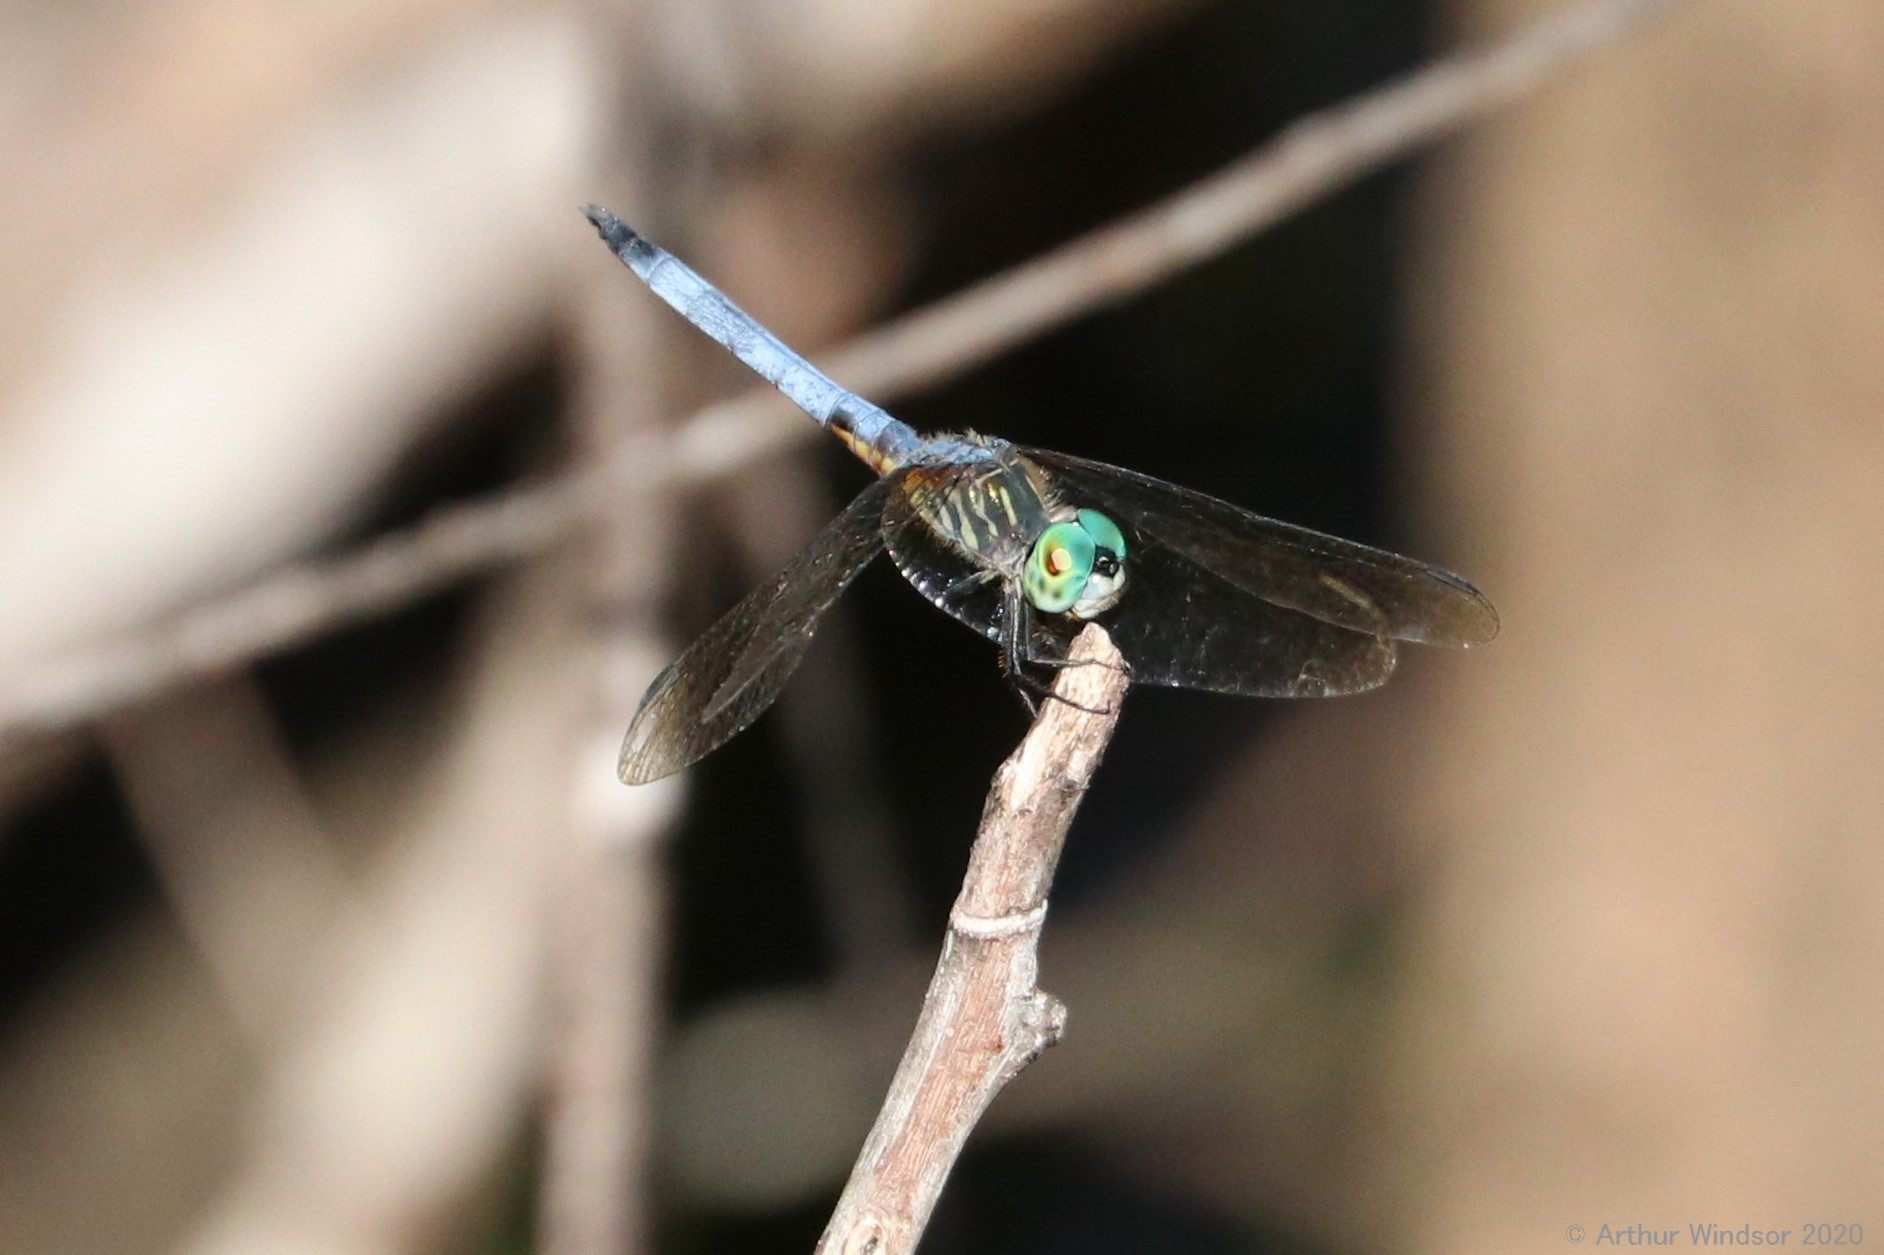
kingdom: Animalia
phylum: Arthropoda
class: Insecta
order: Odonata
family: Libellulidae
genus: Pachydiplax
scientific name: Pachydiplax longipennis
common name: Blue dasher
